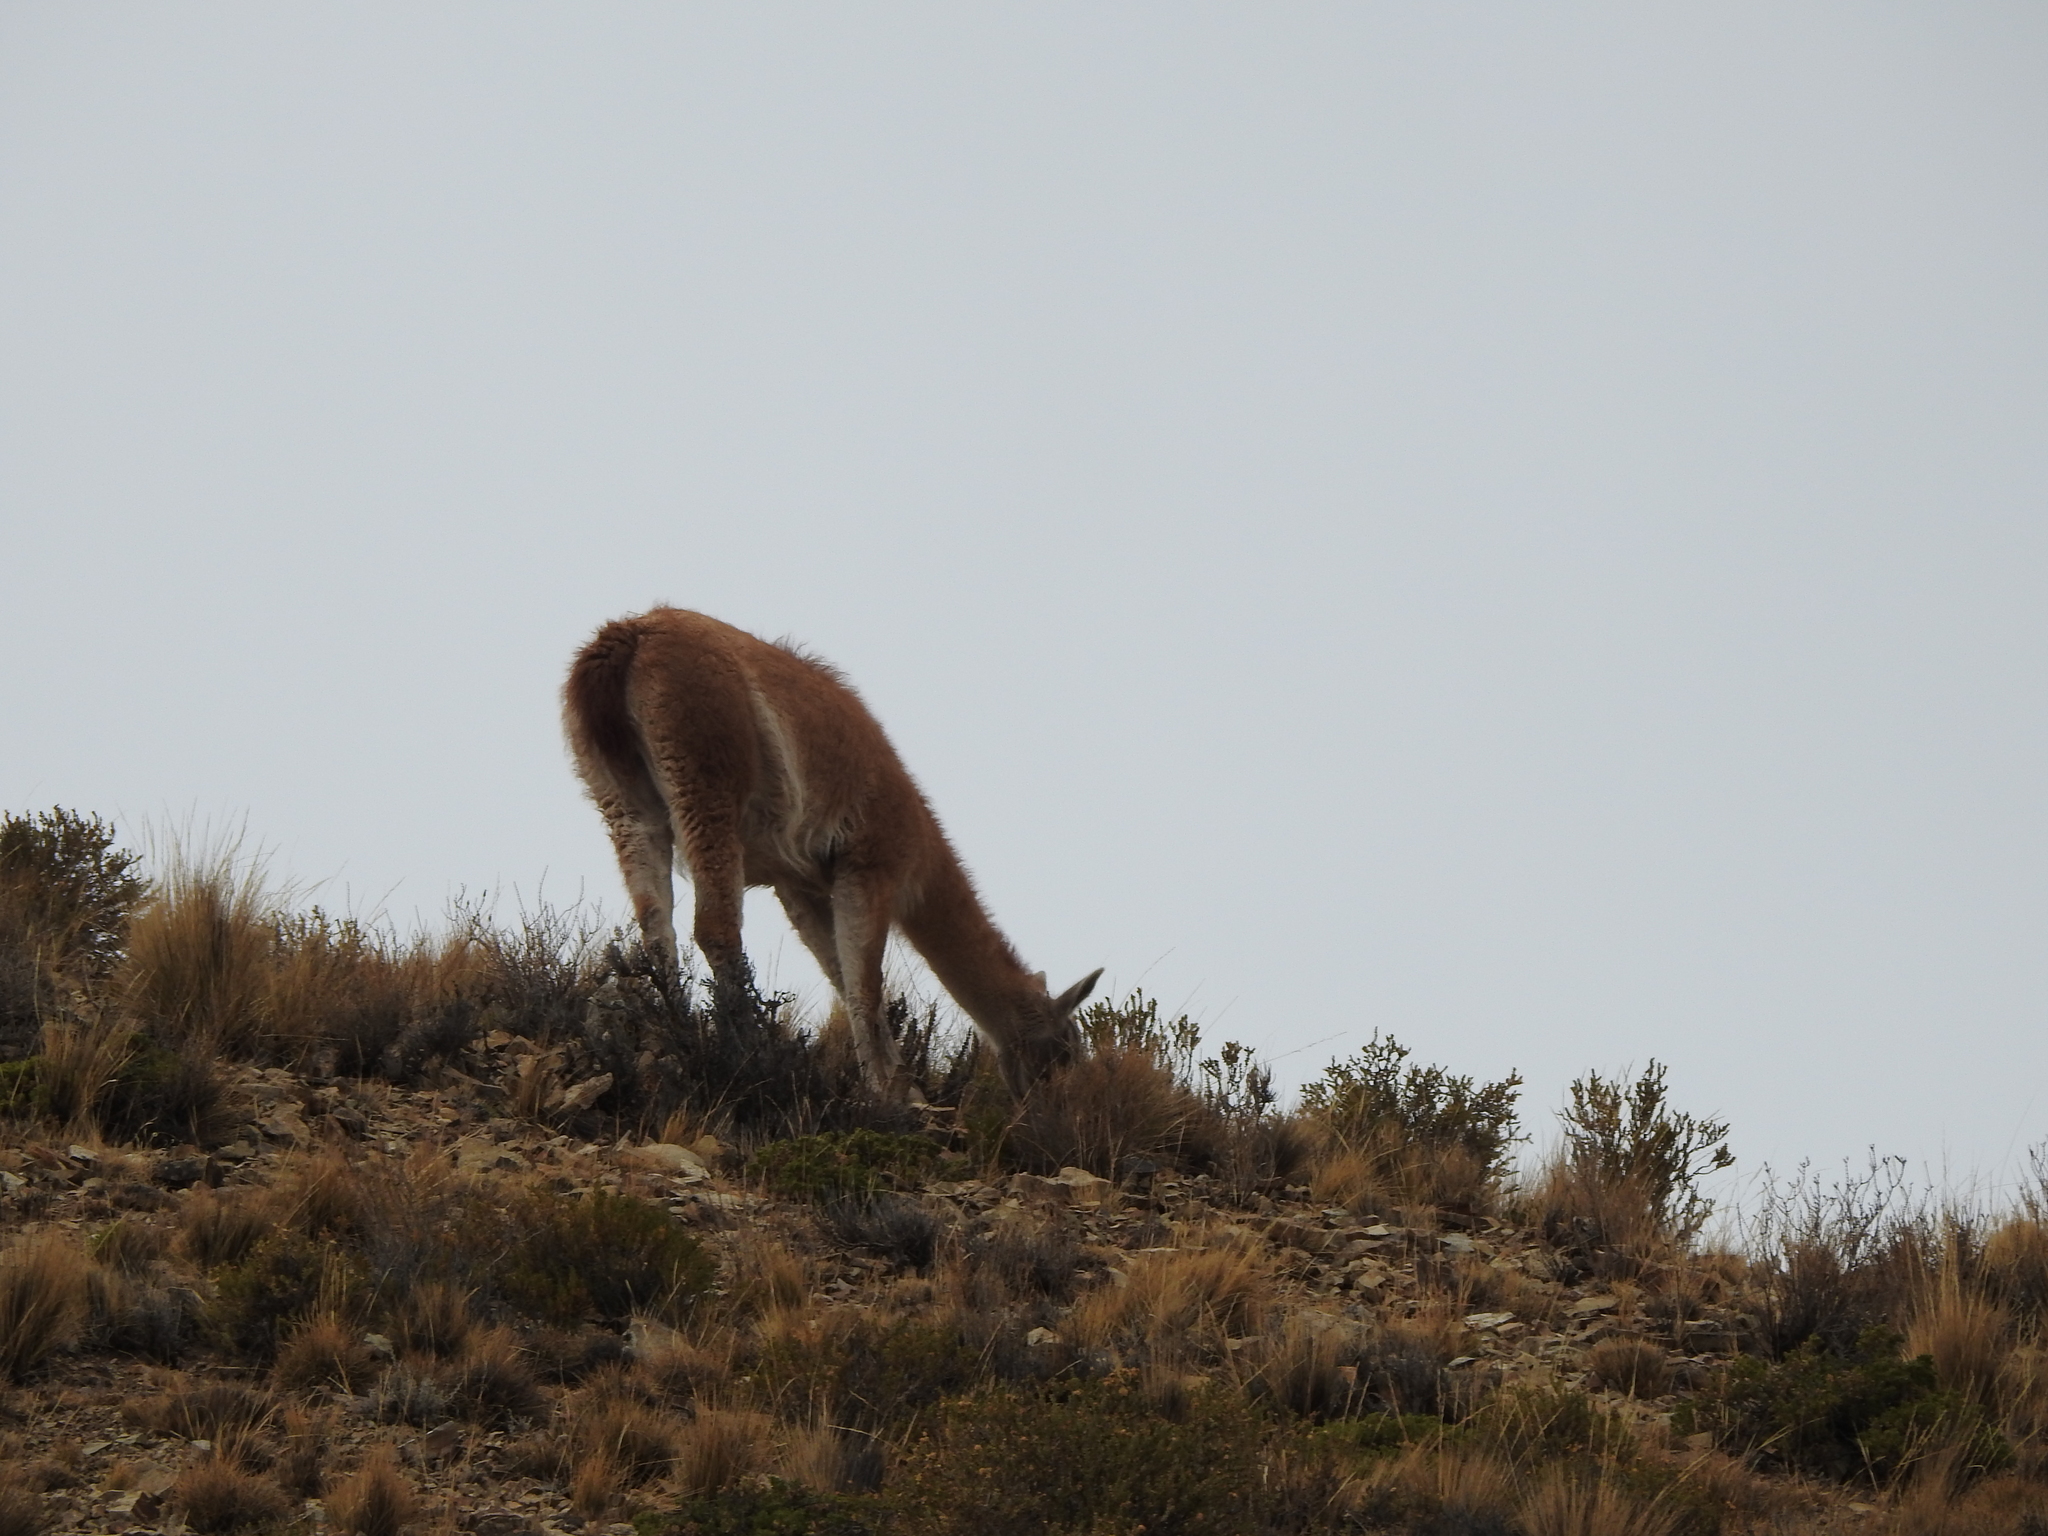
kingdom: Animalia
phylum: Chordata
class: Mammalia
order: Artiodactyla
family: Camelidae
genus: Lama
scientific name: Lama glama
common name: Llama
